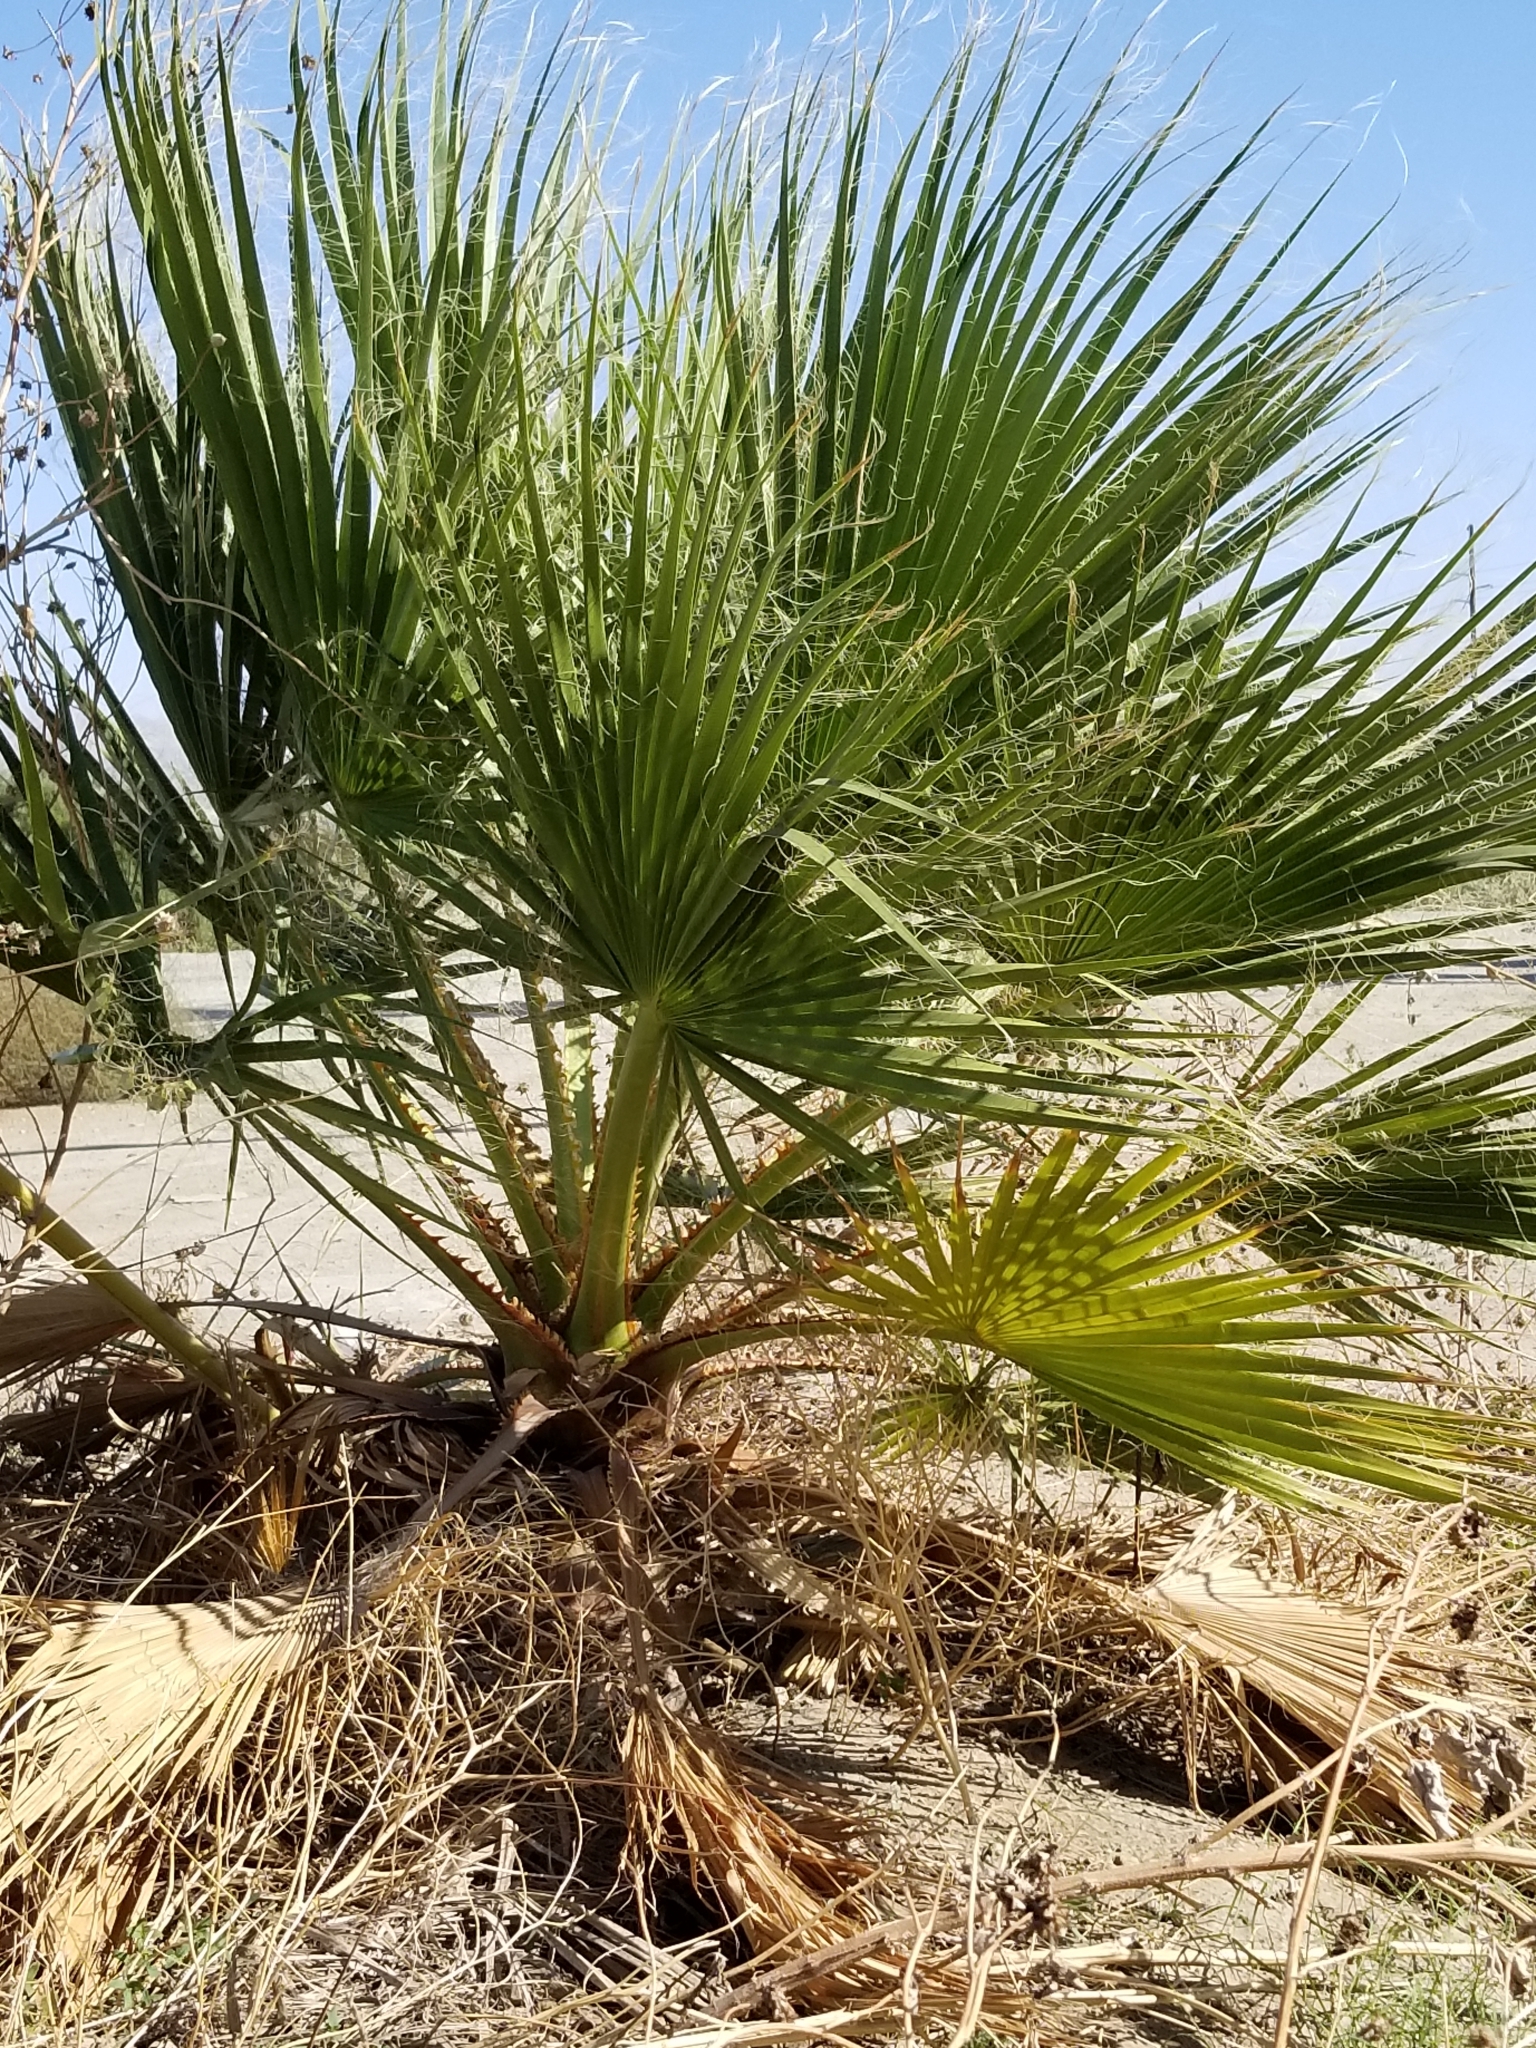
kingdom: Plantae
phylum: Tracheophyta
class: Liliopsida
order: Arecales
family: Arecaceae
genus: Washingtonia
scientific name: Washingtonia filifera
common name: California fan palm
